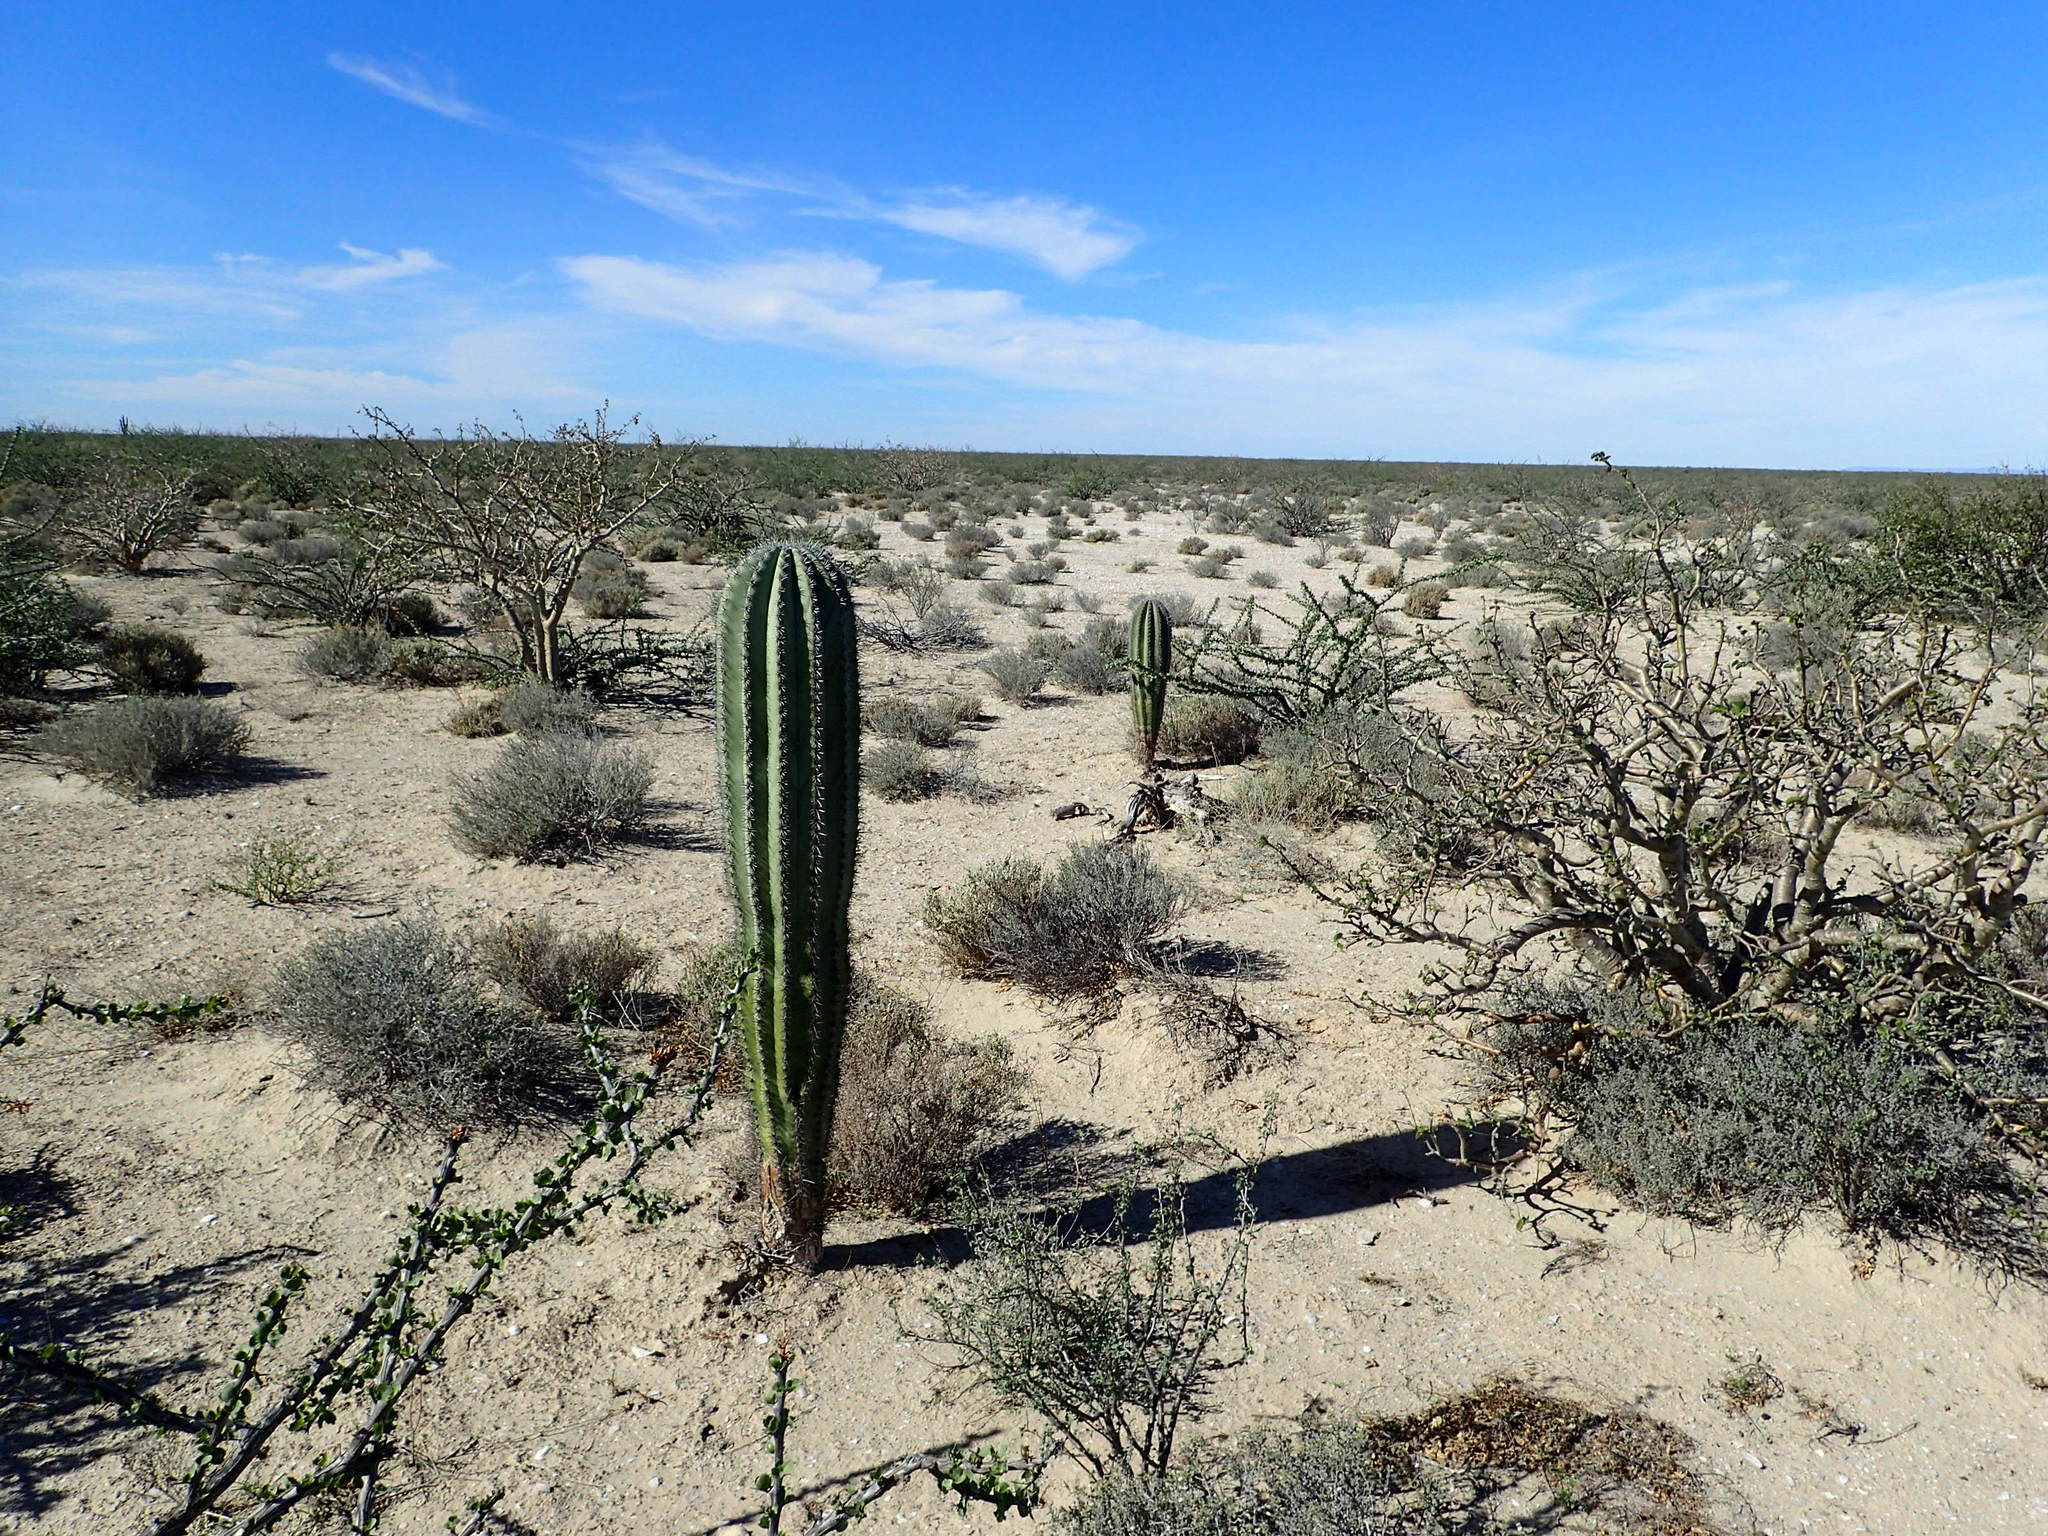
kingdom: Plantae
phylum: Tracheophyta
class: Magnoliopsida
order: Caryophyllales
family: Cactaceae
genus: Pachycereus
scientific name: Pachycereus pringlei
